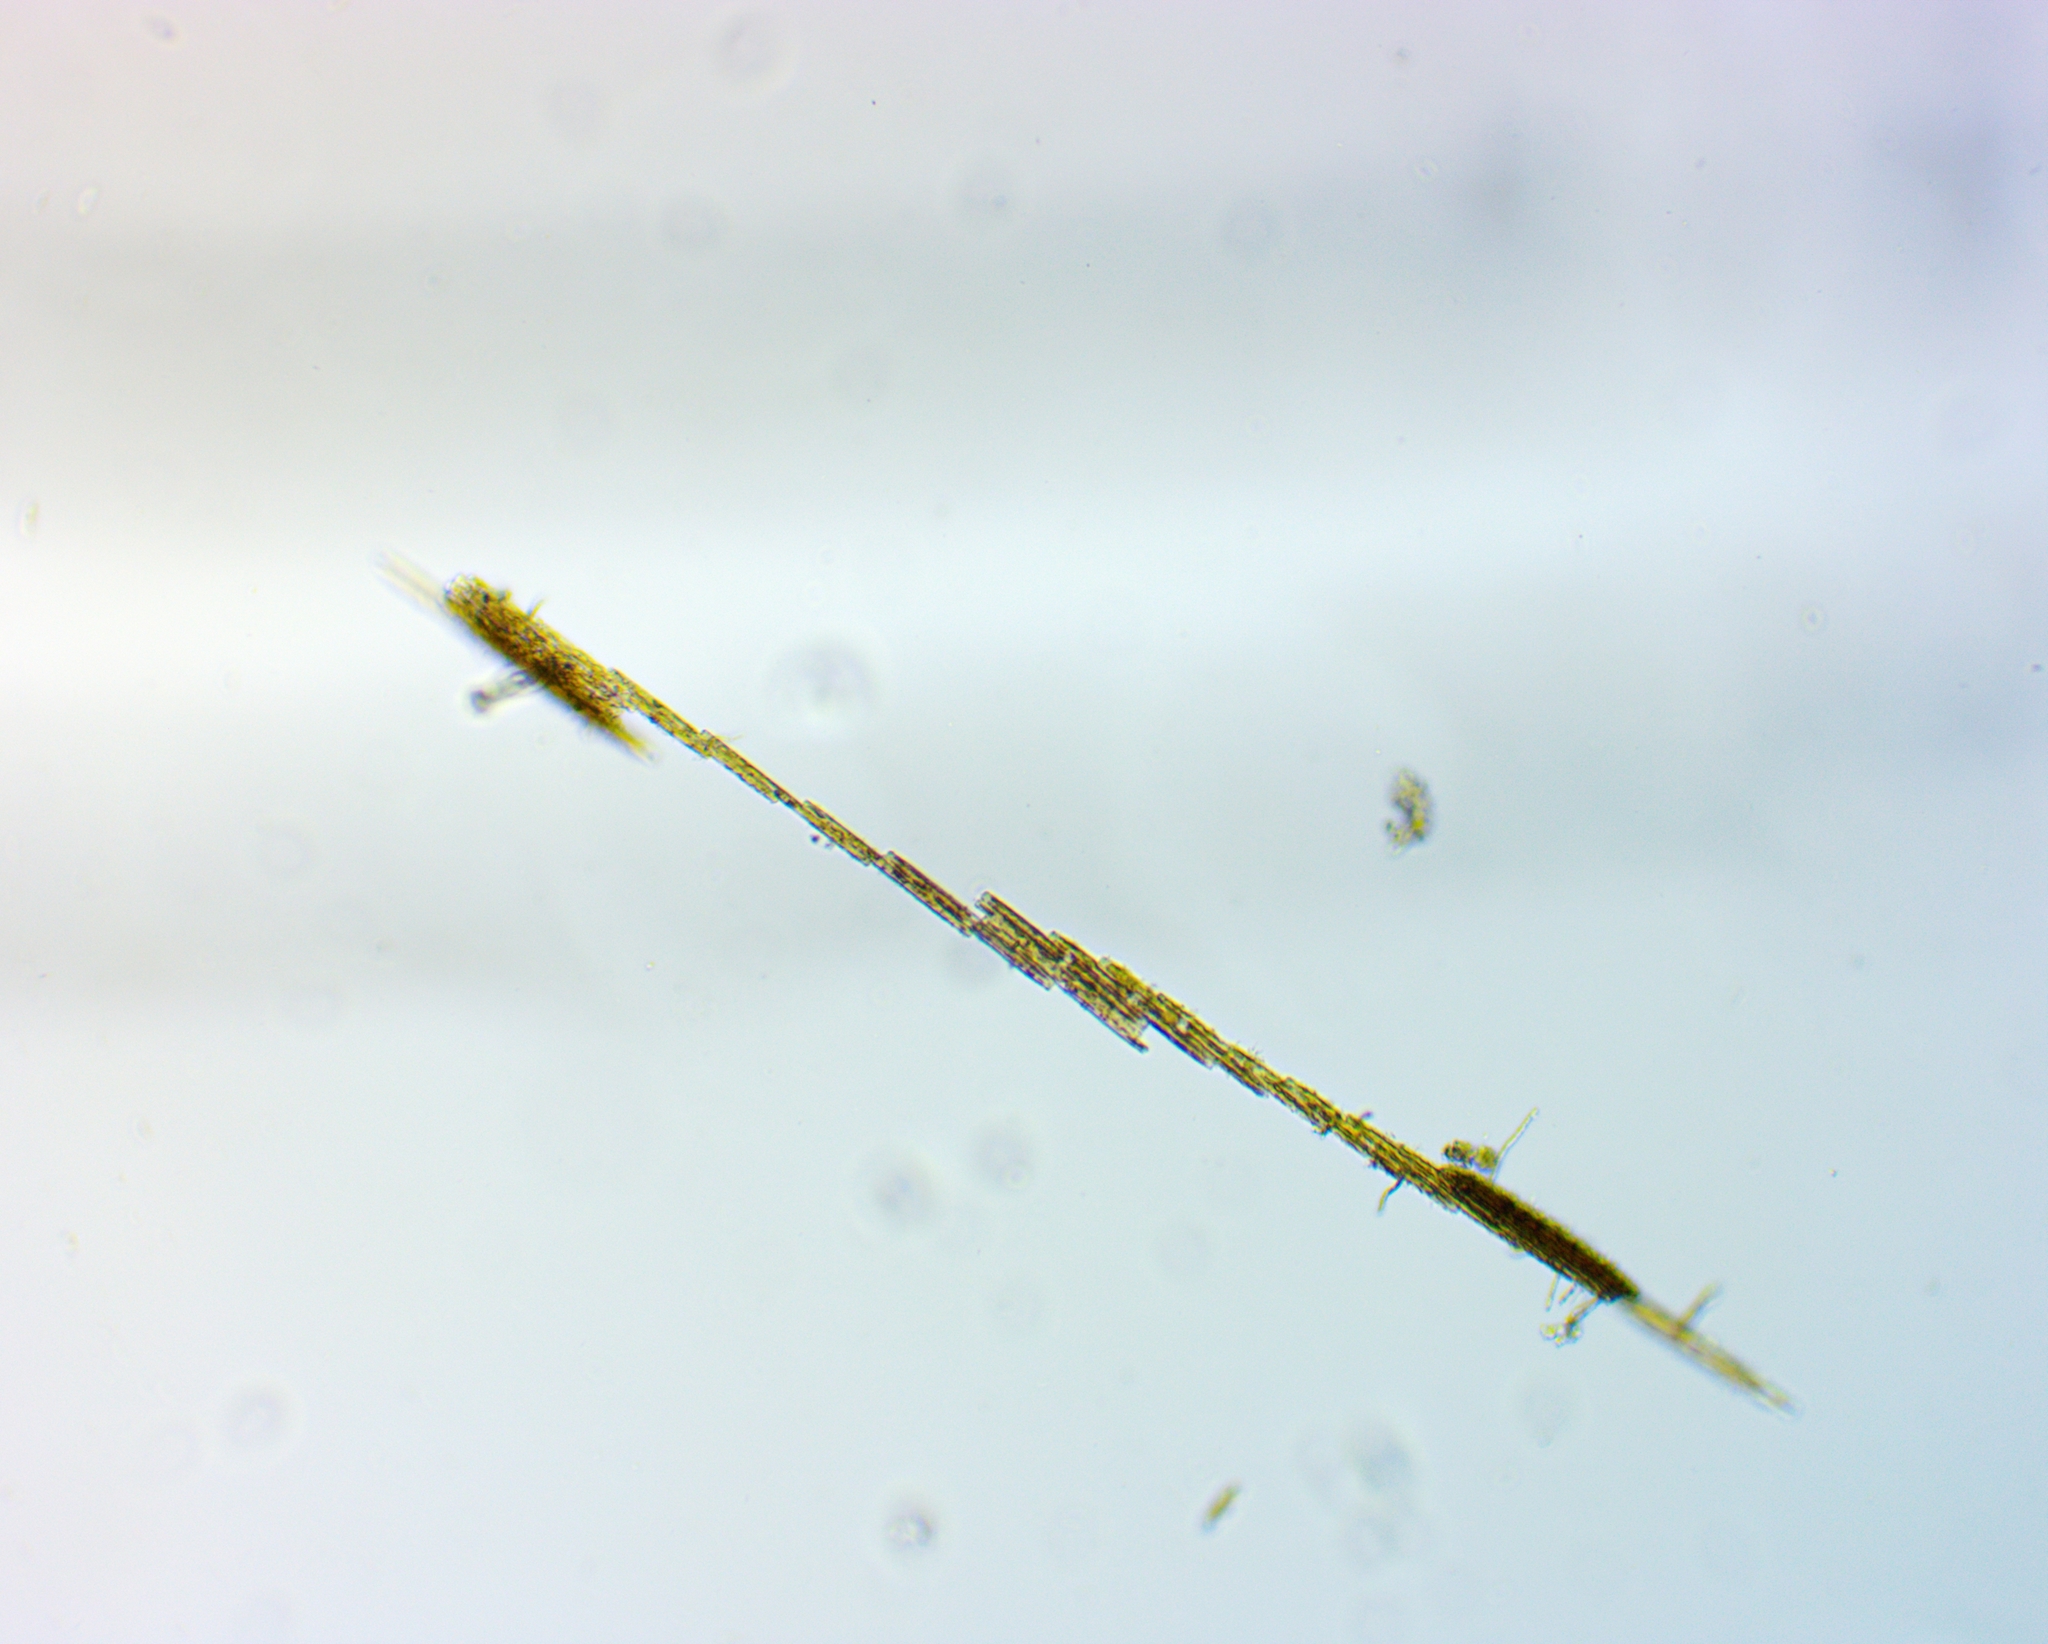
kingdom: Chromista
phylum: Ochrophyta
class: Bacillariophyceae
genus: Vibrio
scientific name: Vibrio paxillifer
